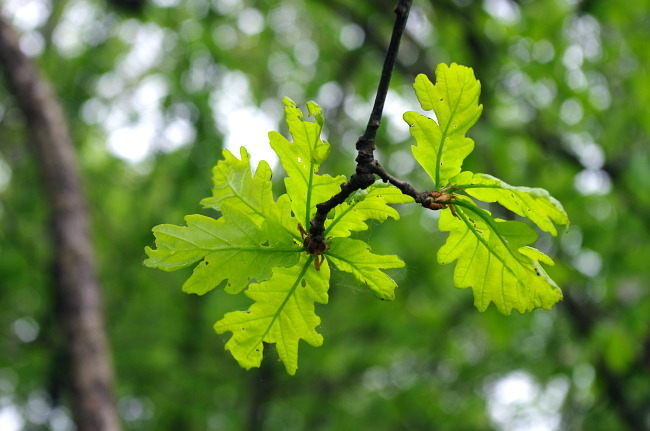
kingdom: Plantae
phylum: Tracheophyta
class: Magnoliopsida
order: Fagales
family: Fagaceae
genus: Quercus
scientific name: Quercus robur
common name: Pedunculate oak
